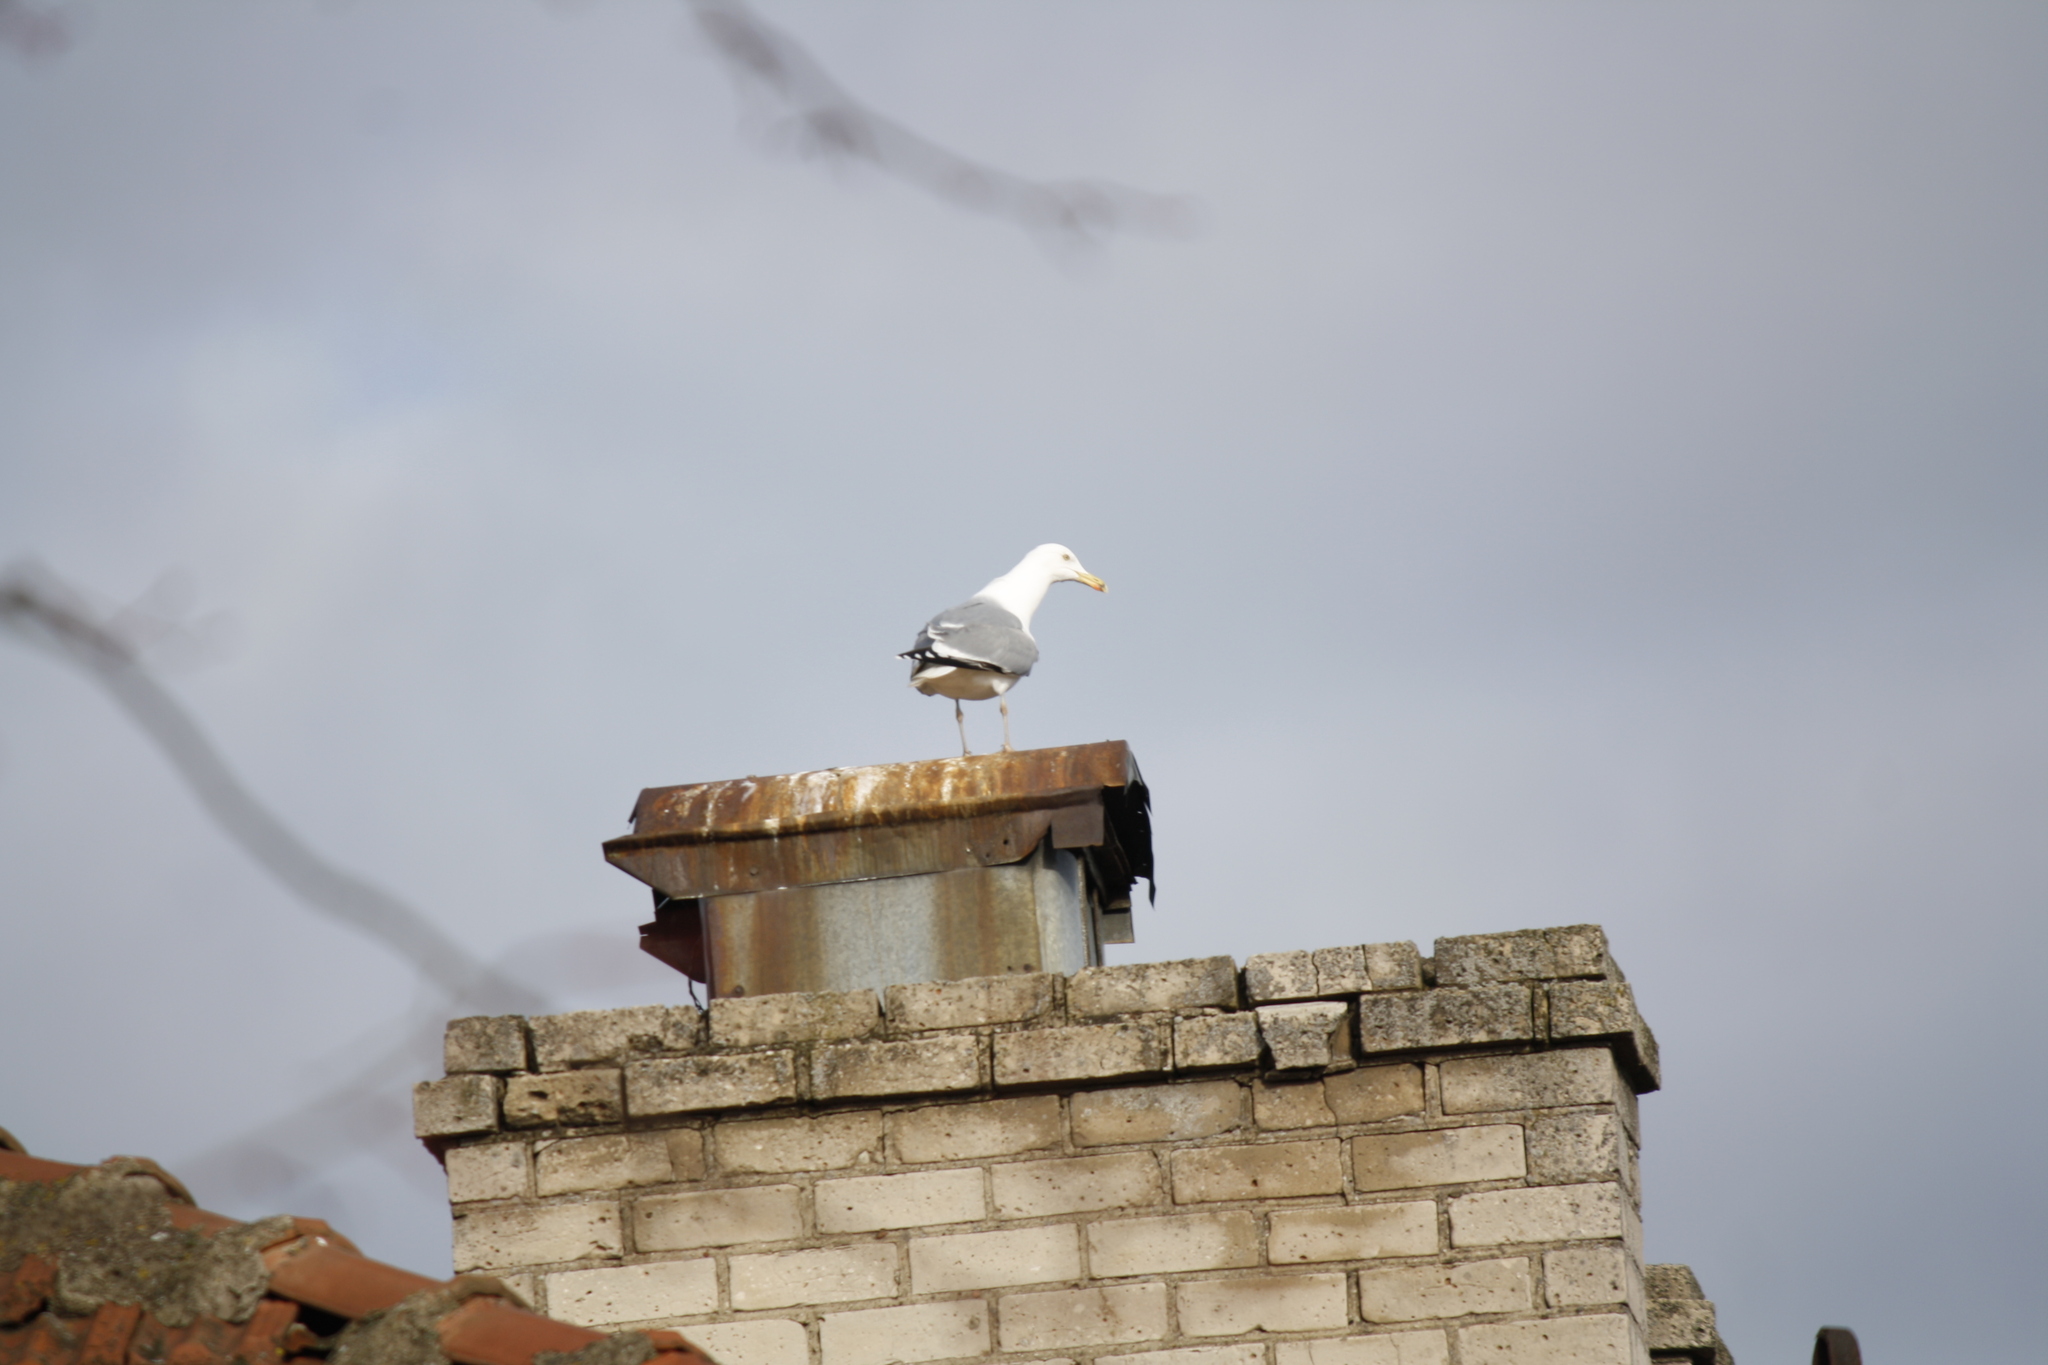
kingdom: Animalia
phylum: Chordata
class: Aves
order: Charadriiformes
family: Laridae
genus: Larus
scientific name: Larus argentatus
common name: Herring gull
